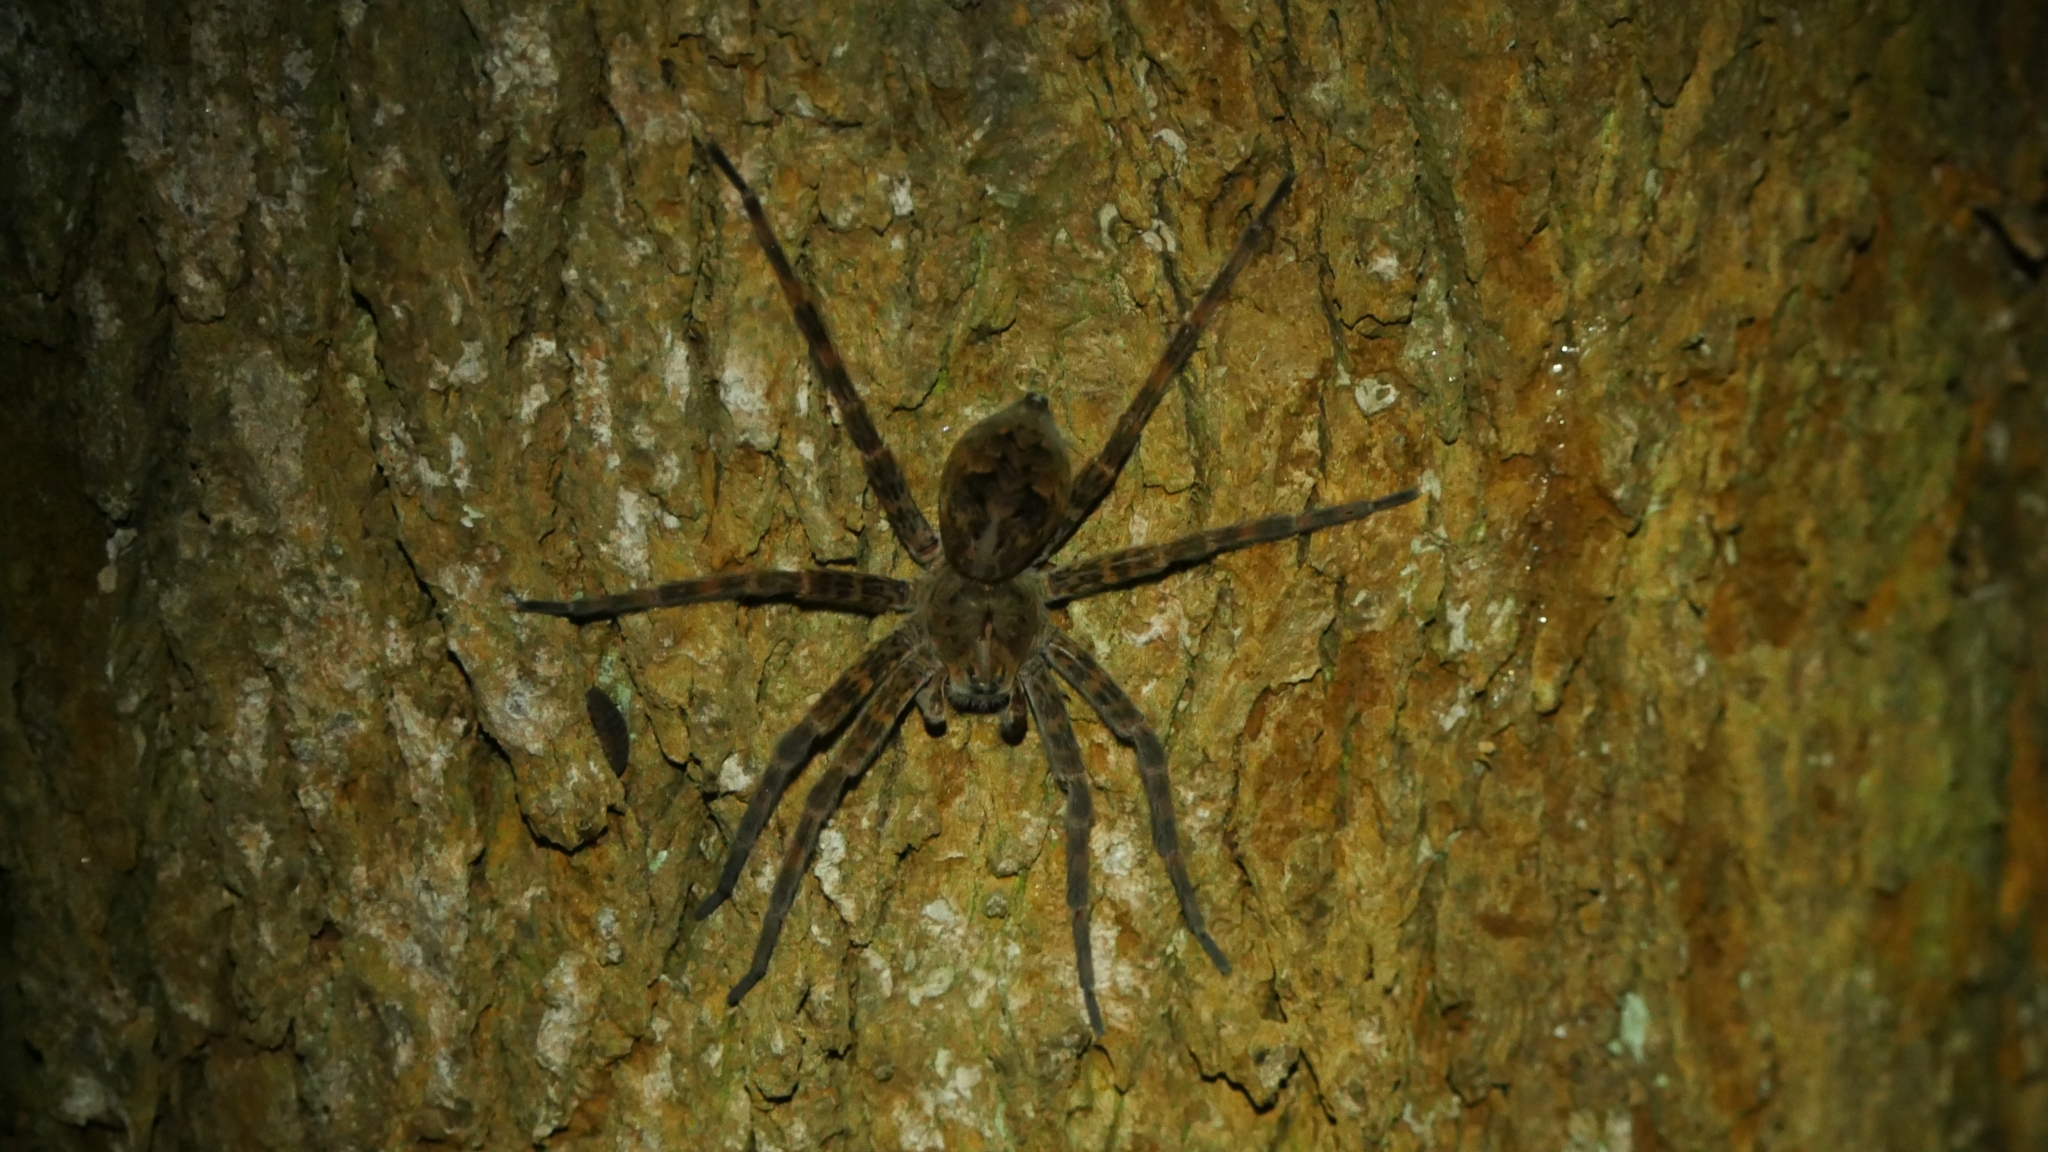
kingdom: Animalia
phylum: Arthropoda
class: Arachnida
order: Araneae
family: Pisauridae
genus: Dolomedes
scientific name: Dolomedes tenebrosus
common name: Dark fishing spider
